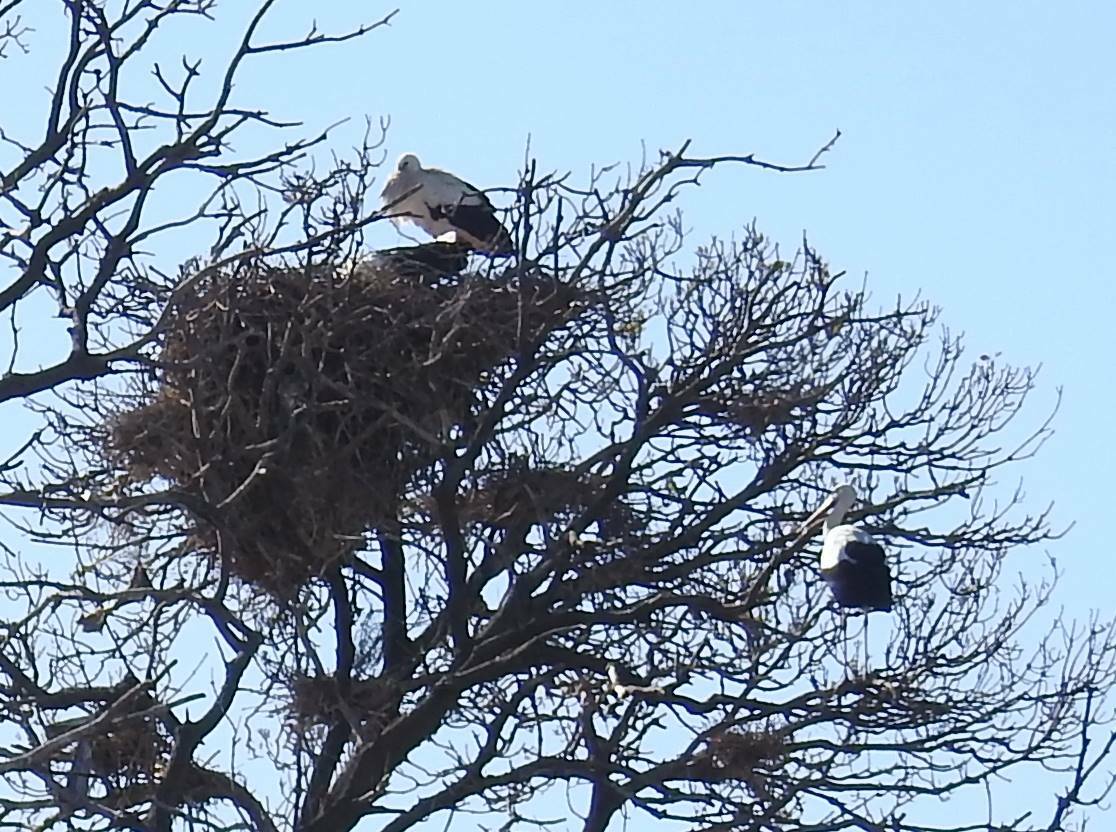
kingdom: Animalia
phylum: Chordata
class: Aves
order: Ciconiiformes
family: Ciconiidae
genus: Ciconia
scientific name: Ciconia ciconia
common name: White stork
